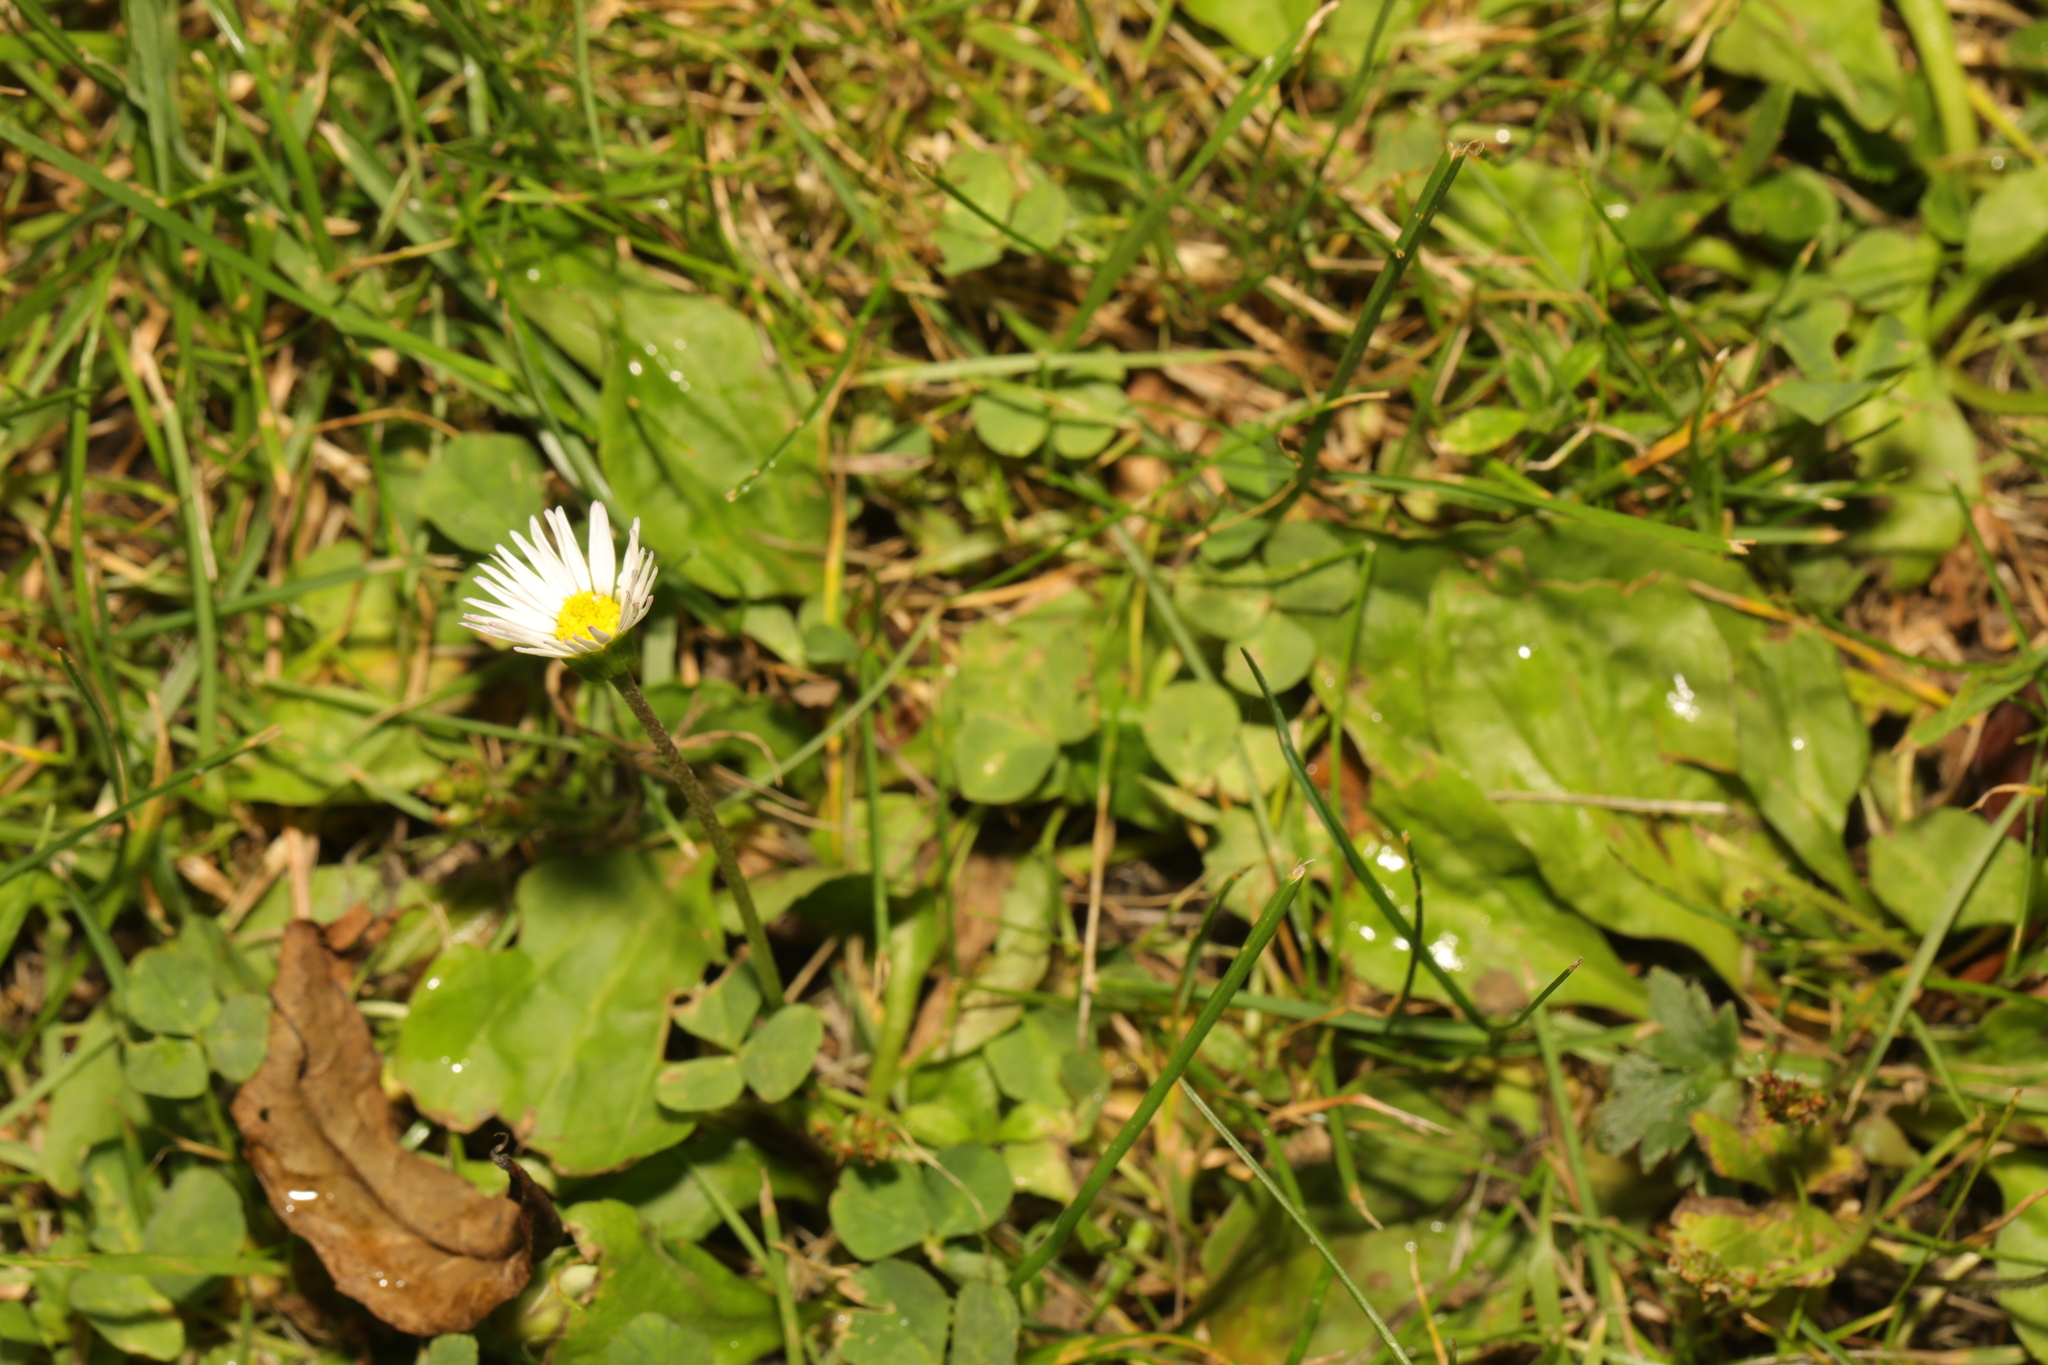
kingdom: Plantae
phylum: Tracheophyta
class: Magnoliopsida
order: Asterales
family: Asteraceae
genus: Bellis
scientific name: Bellis perennis
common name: Lawndaisy
